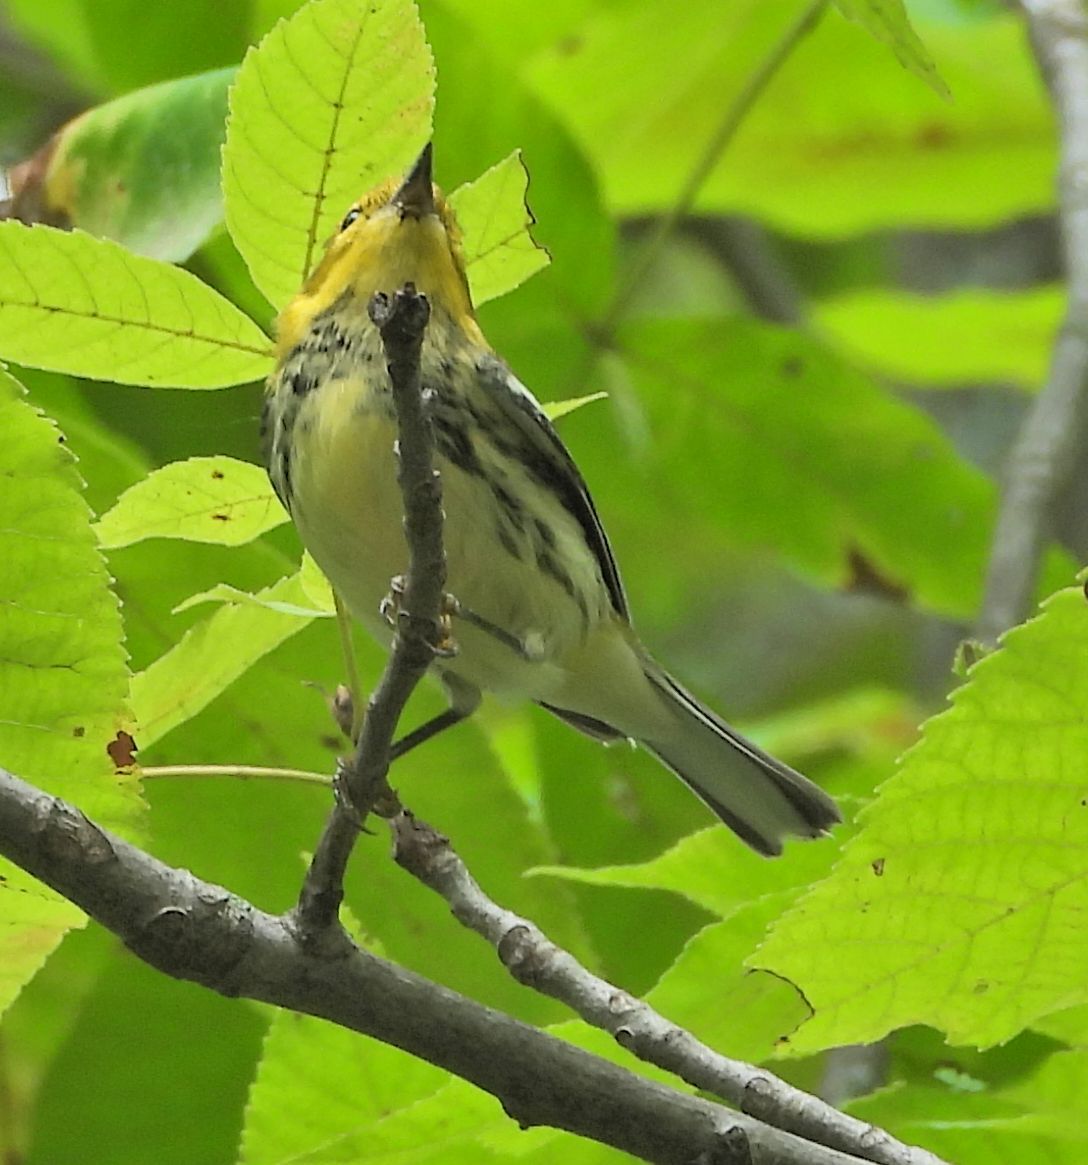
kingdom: Animalia
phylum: Chordata
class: Aves
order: Passeriformes
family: Parulidae
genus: Setophaga
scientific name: Setophaga virens
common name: Black-throated green warbler
